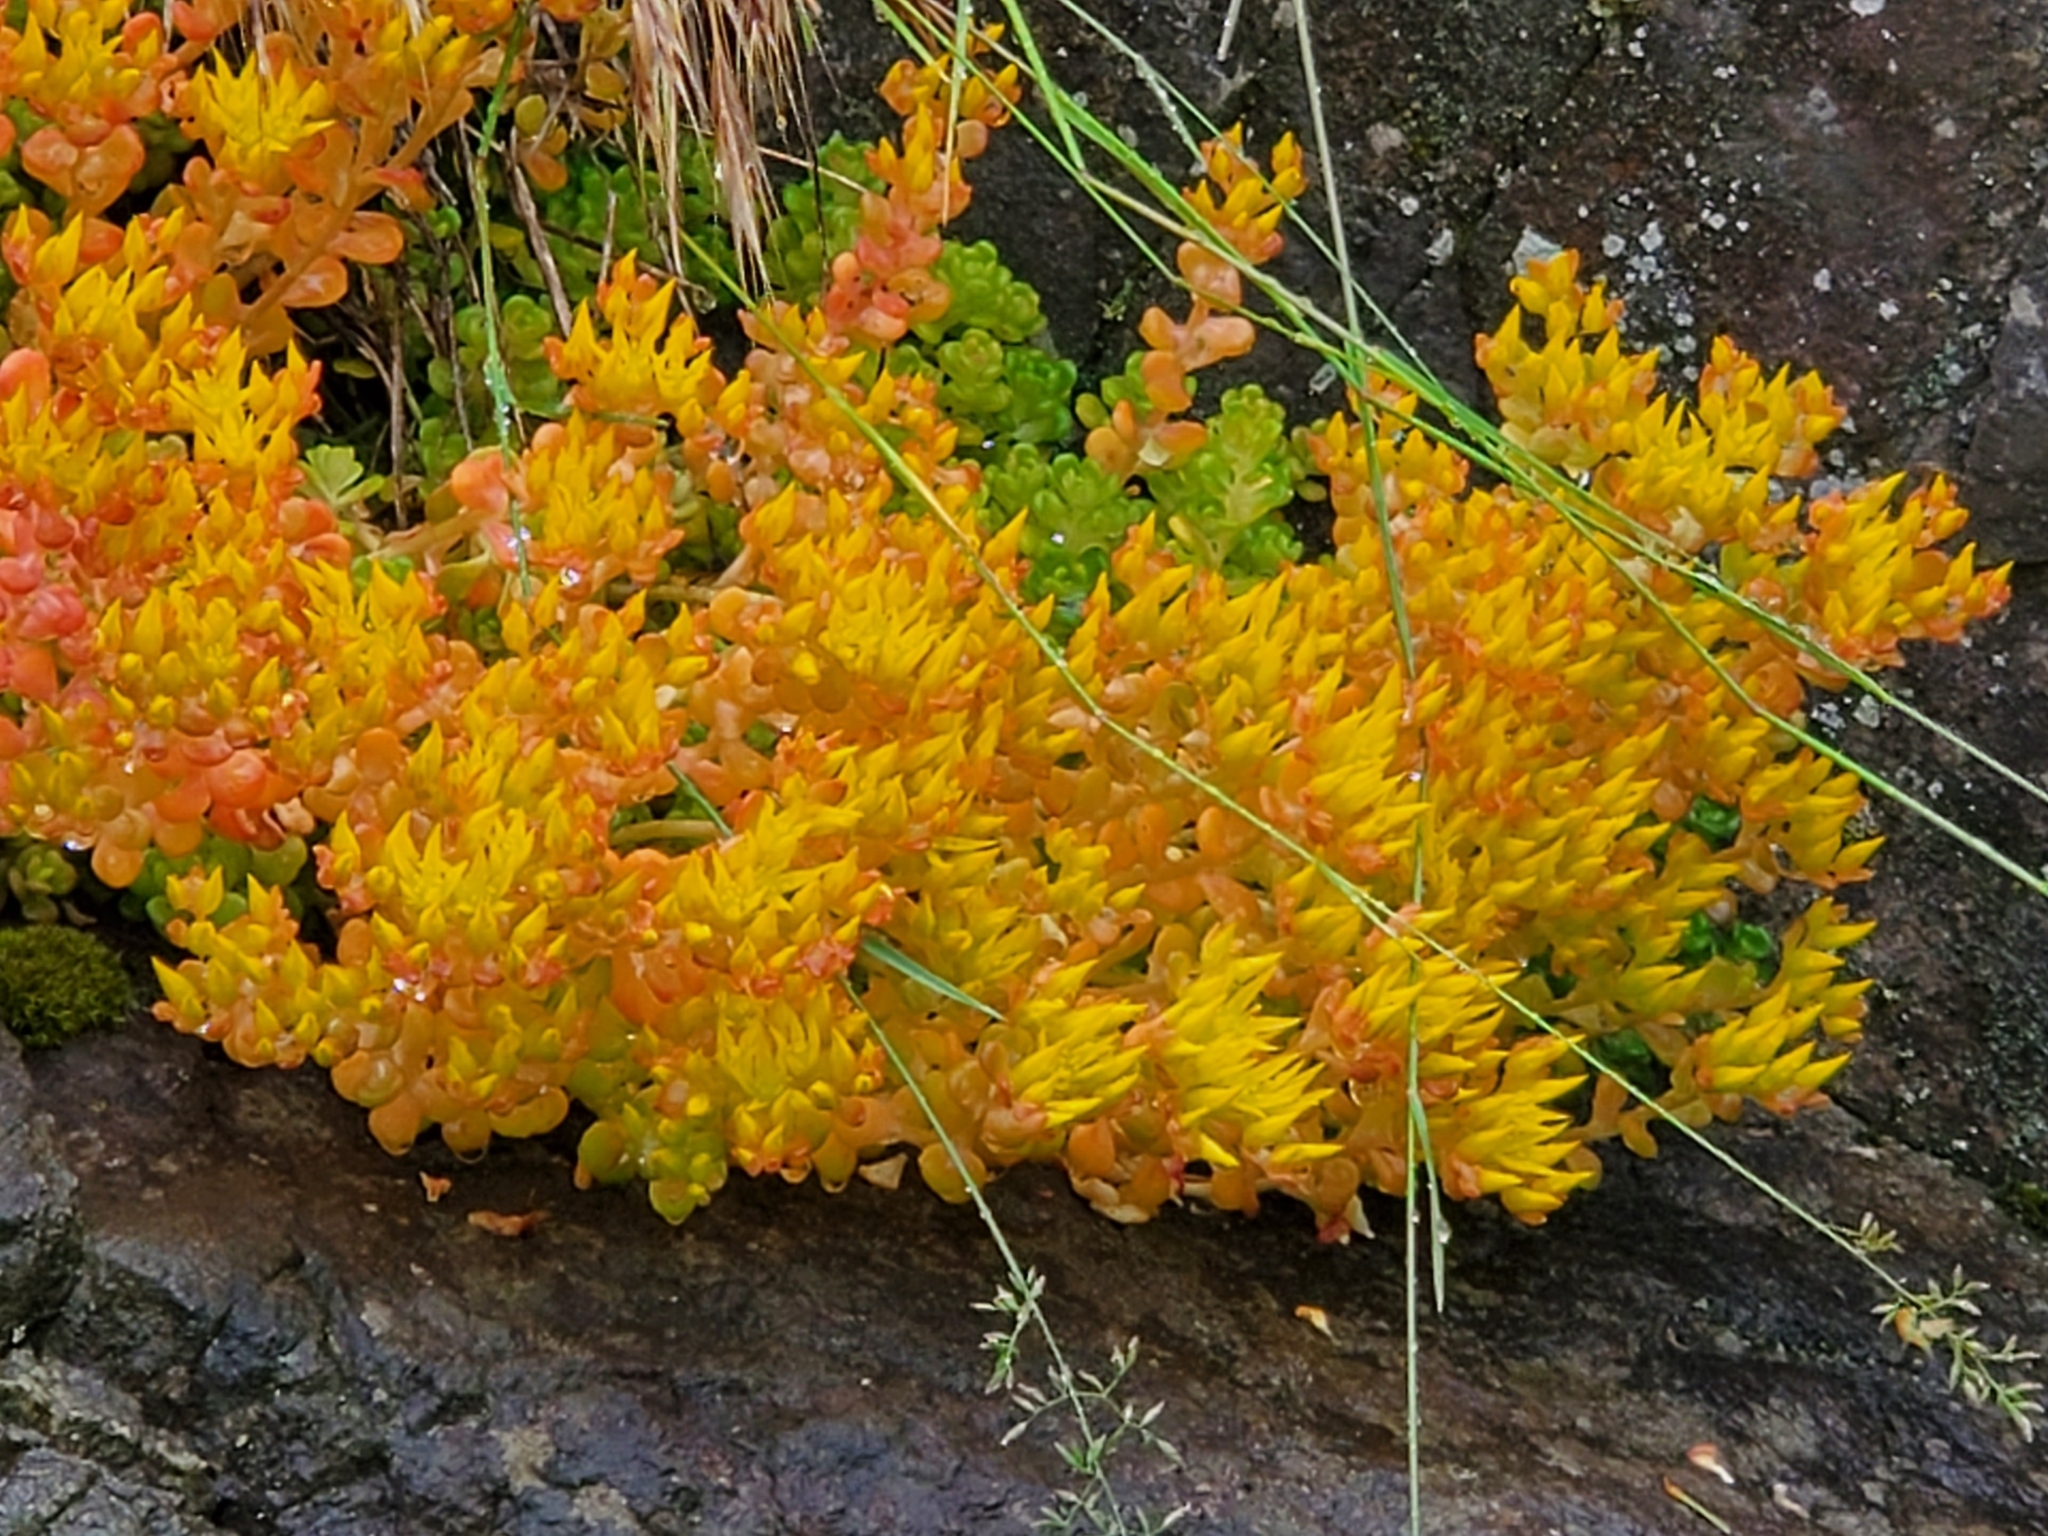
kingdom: Plantae
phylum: Tracheophyta
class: Magnoliopsida
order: Saxifragales
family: Crassulaceae
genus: Sedum
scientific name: Sedum oreganum
